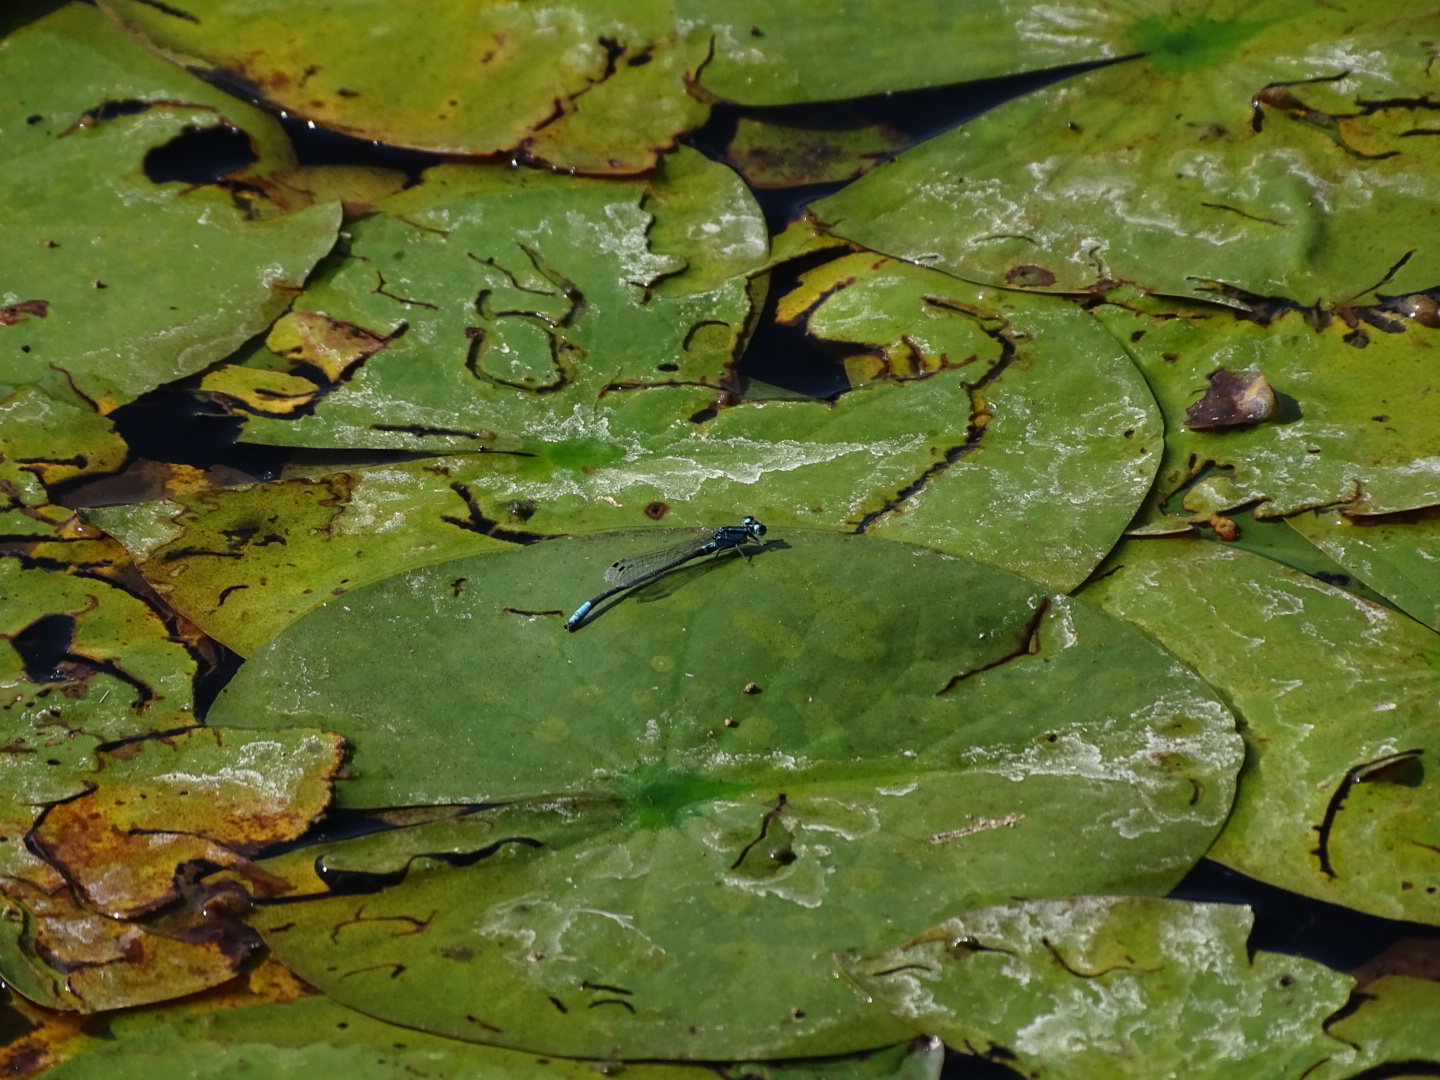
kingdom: Animalia
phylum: Arthropoda
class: Insecta
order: Odonata
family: Coenagrionidae
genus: Ischnura
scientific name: Ischnura kellicotti
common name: Lilypad forktail
